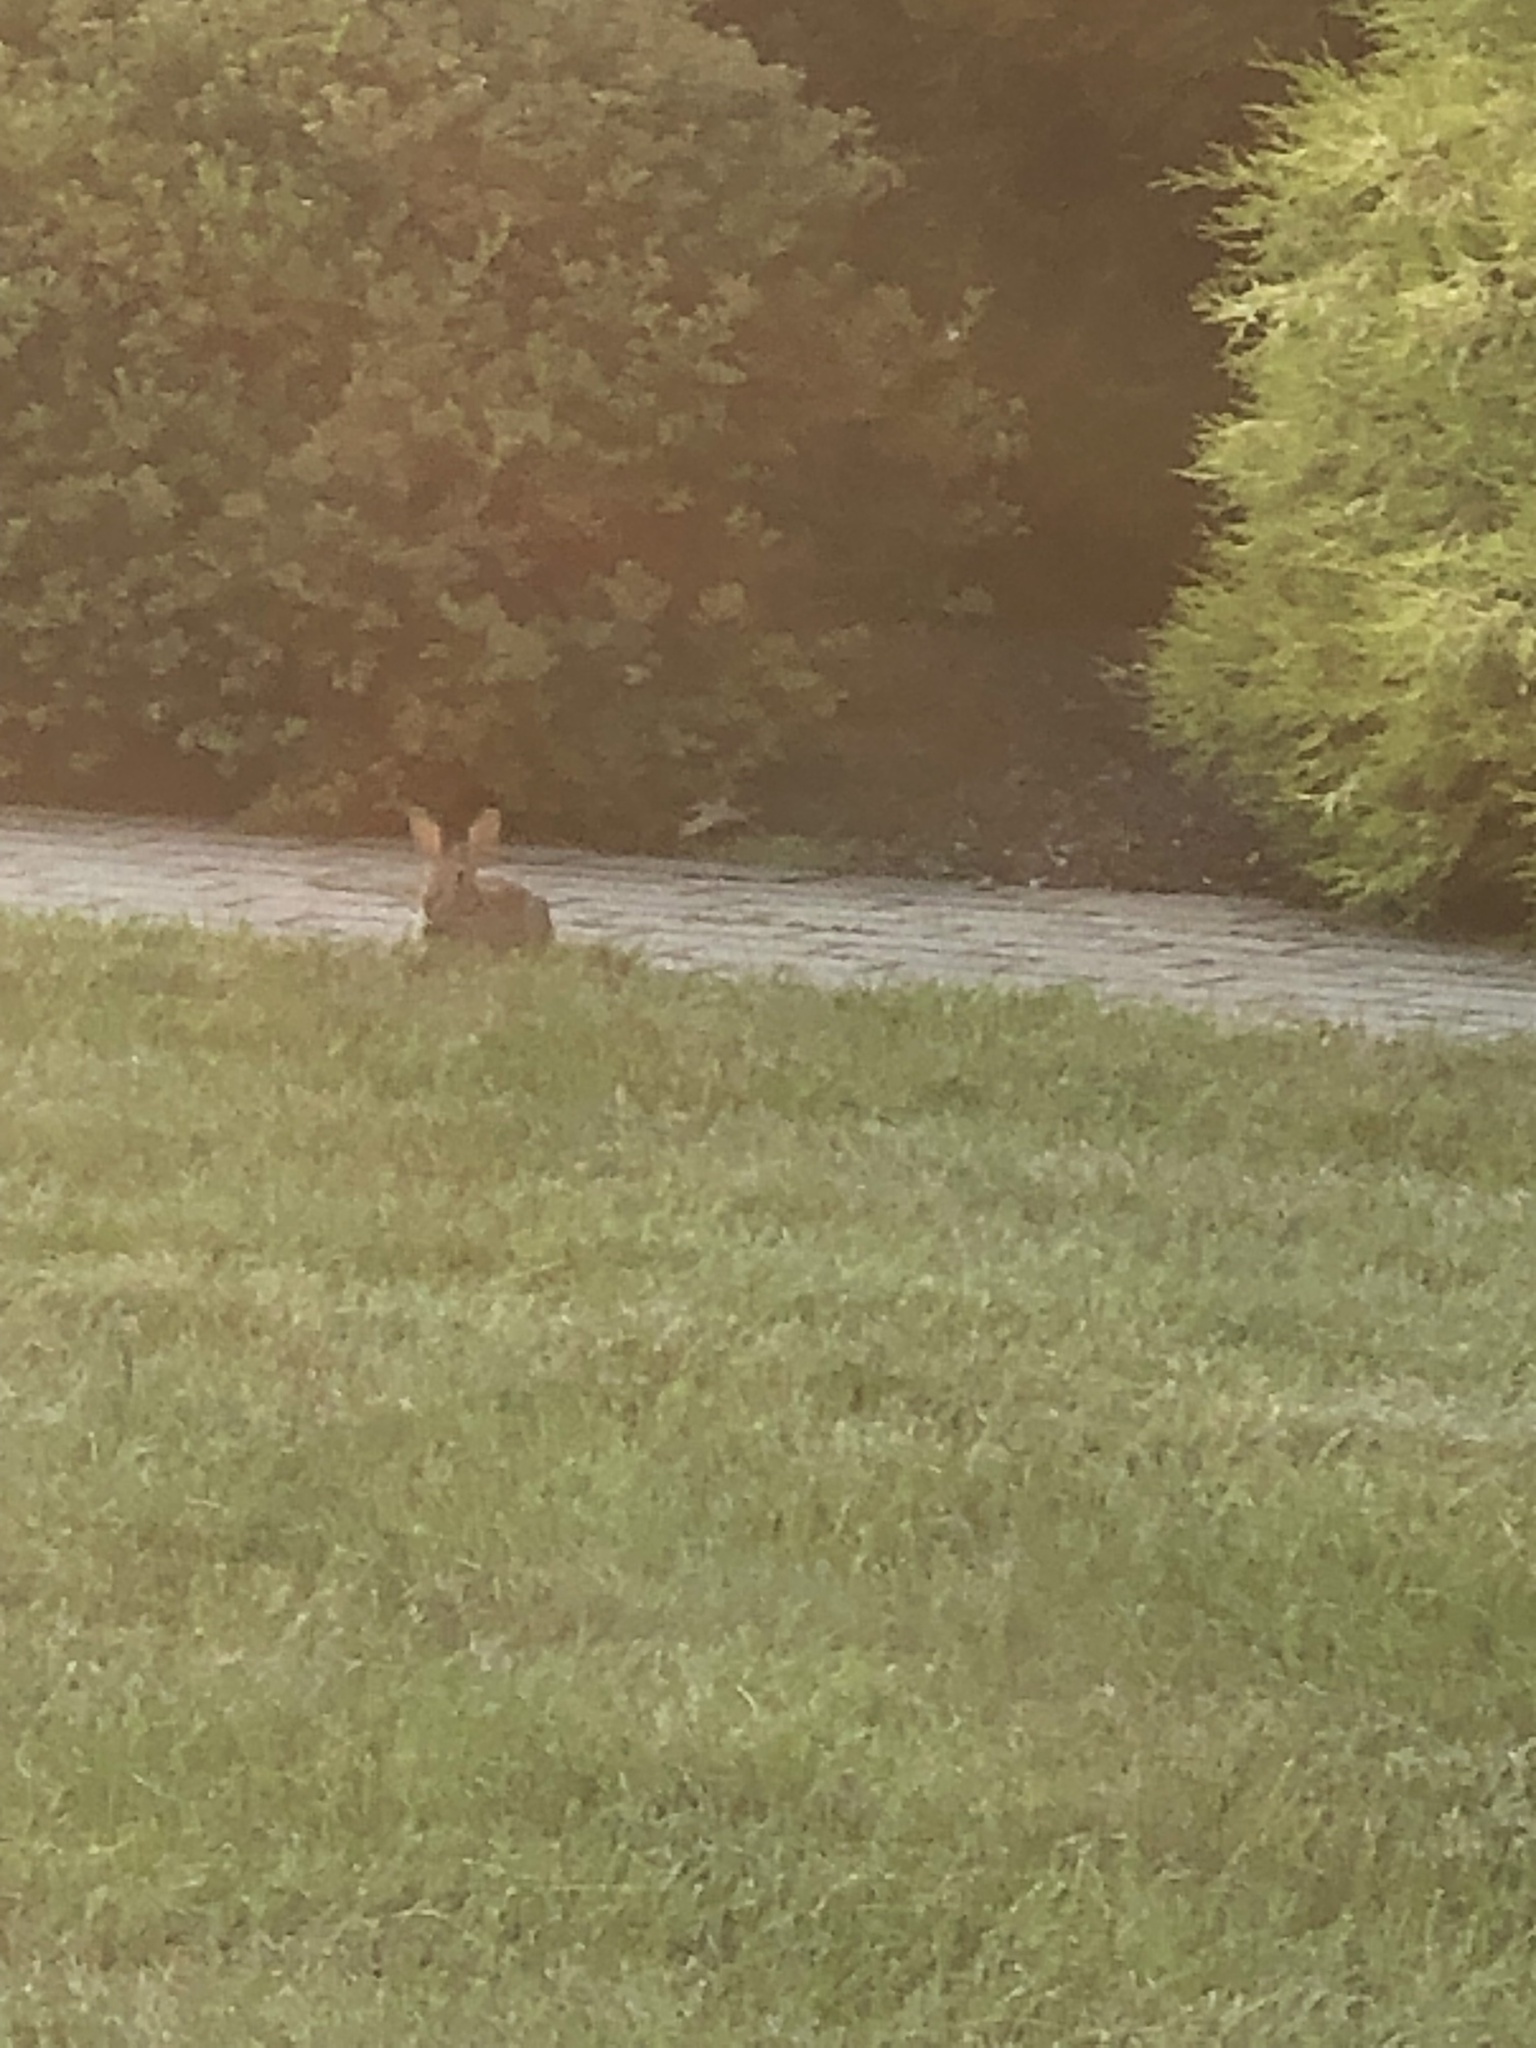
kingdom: Animalia
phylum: Chordata
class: Mammalia
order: Lagomorpha
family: Leporidae
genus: Sylvilagus
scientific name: Sylvilagus floridanus
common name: Eastern cottontail
